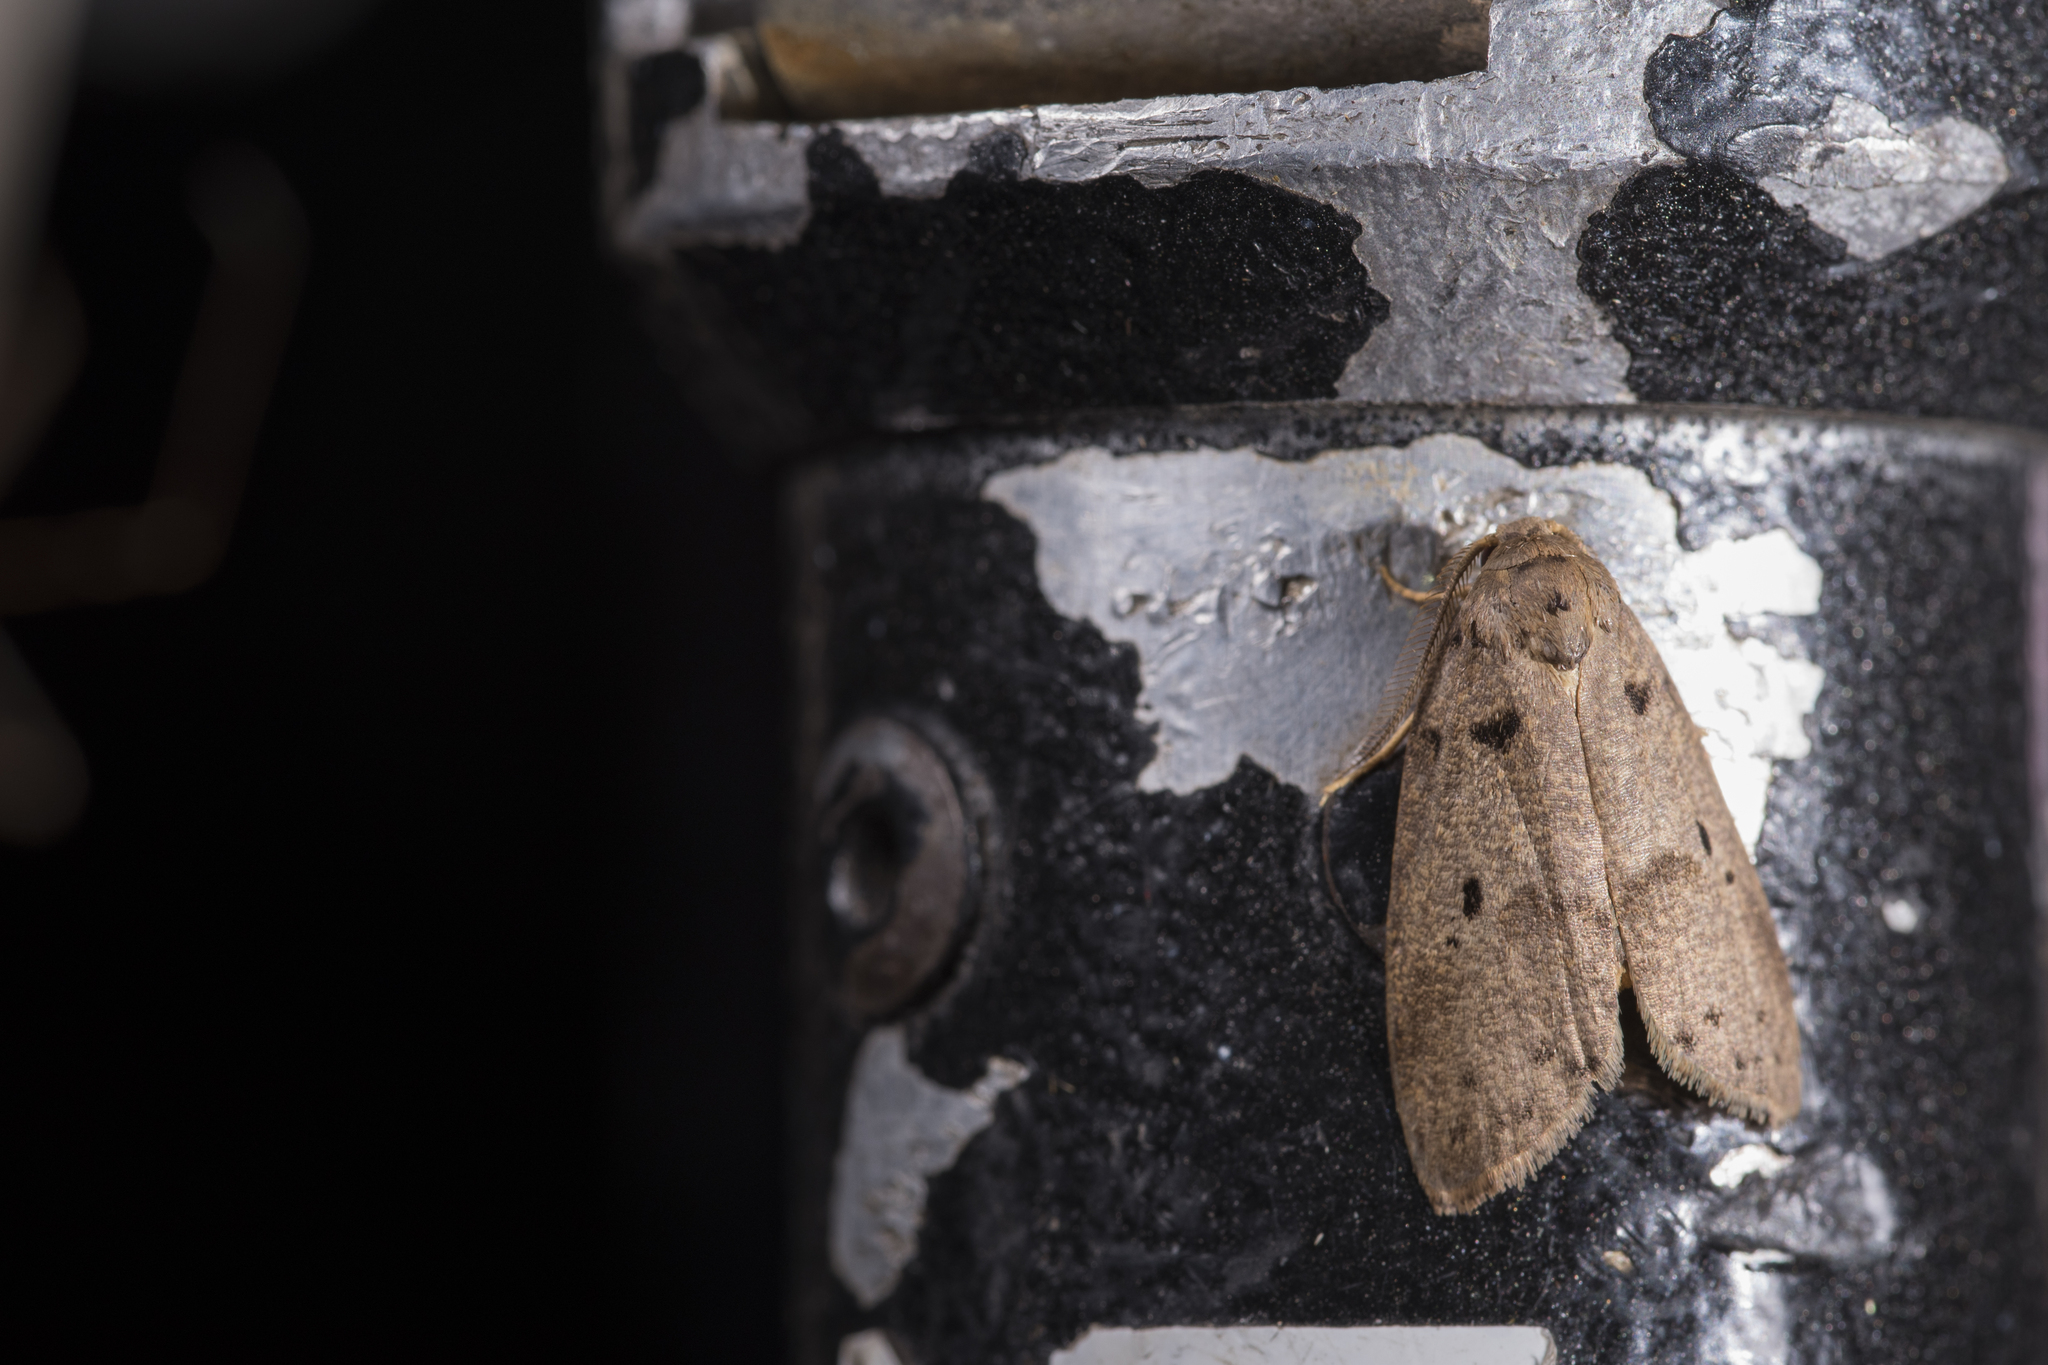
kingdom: Animalia
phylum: Arthropoda
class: Insecta
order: Lepidoptera
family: Erebidae
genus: Eugoa
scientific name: Eugoa grisea
